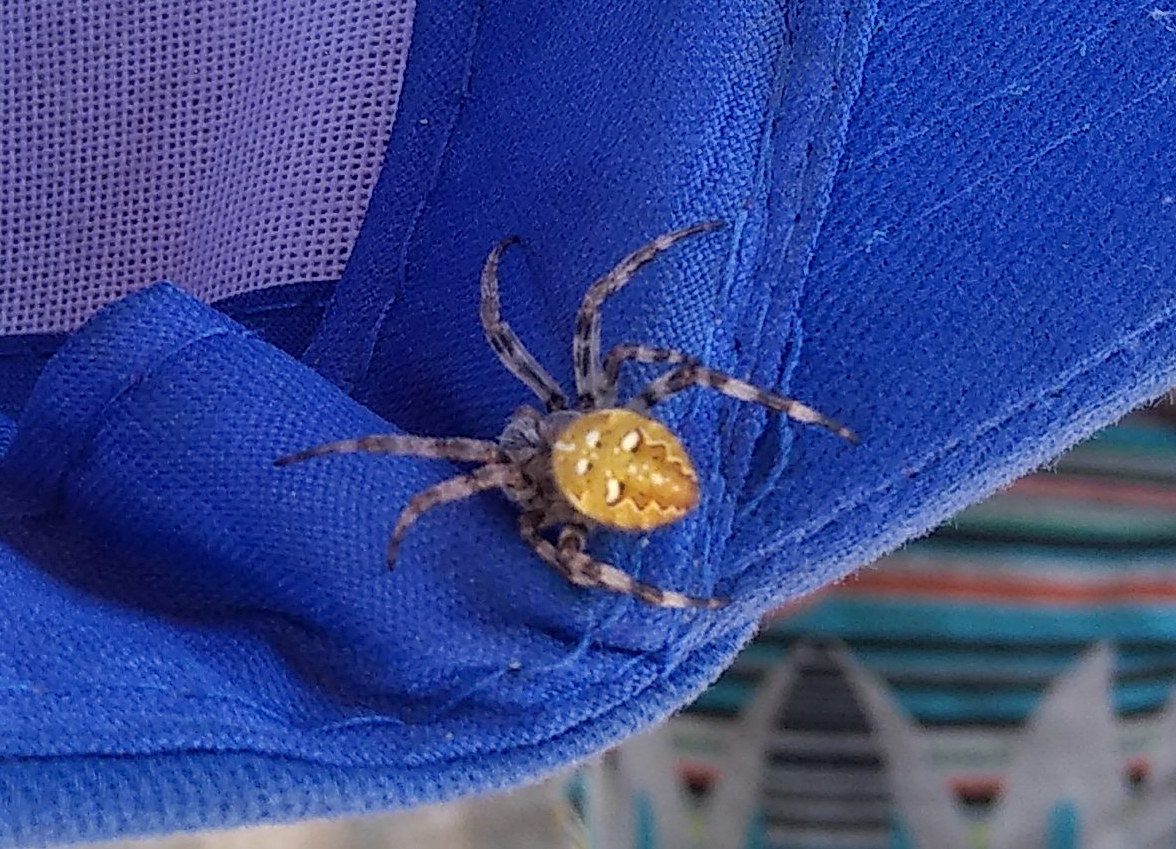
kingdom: Animalia
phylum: Arthropoda
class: Arachnida
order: Araneae
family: Araneidae
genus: Araneus
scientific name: Araneus quadratus
